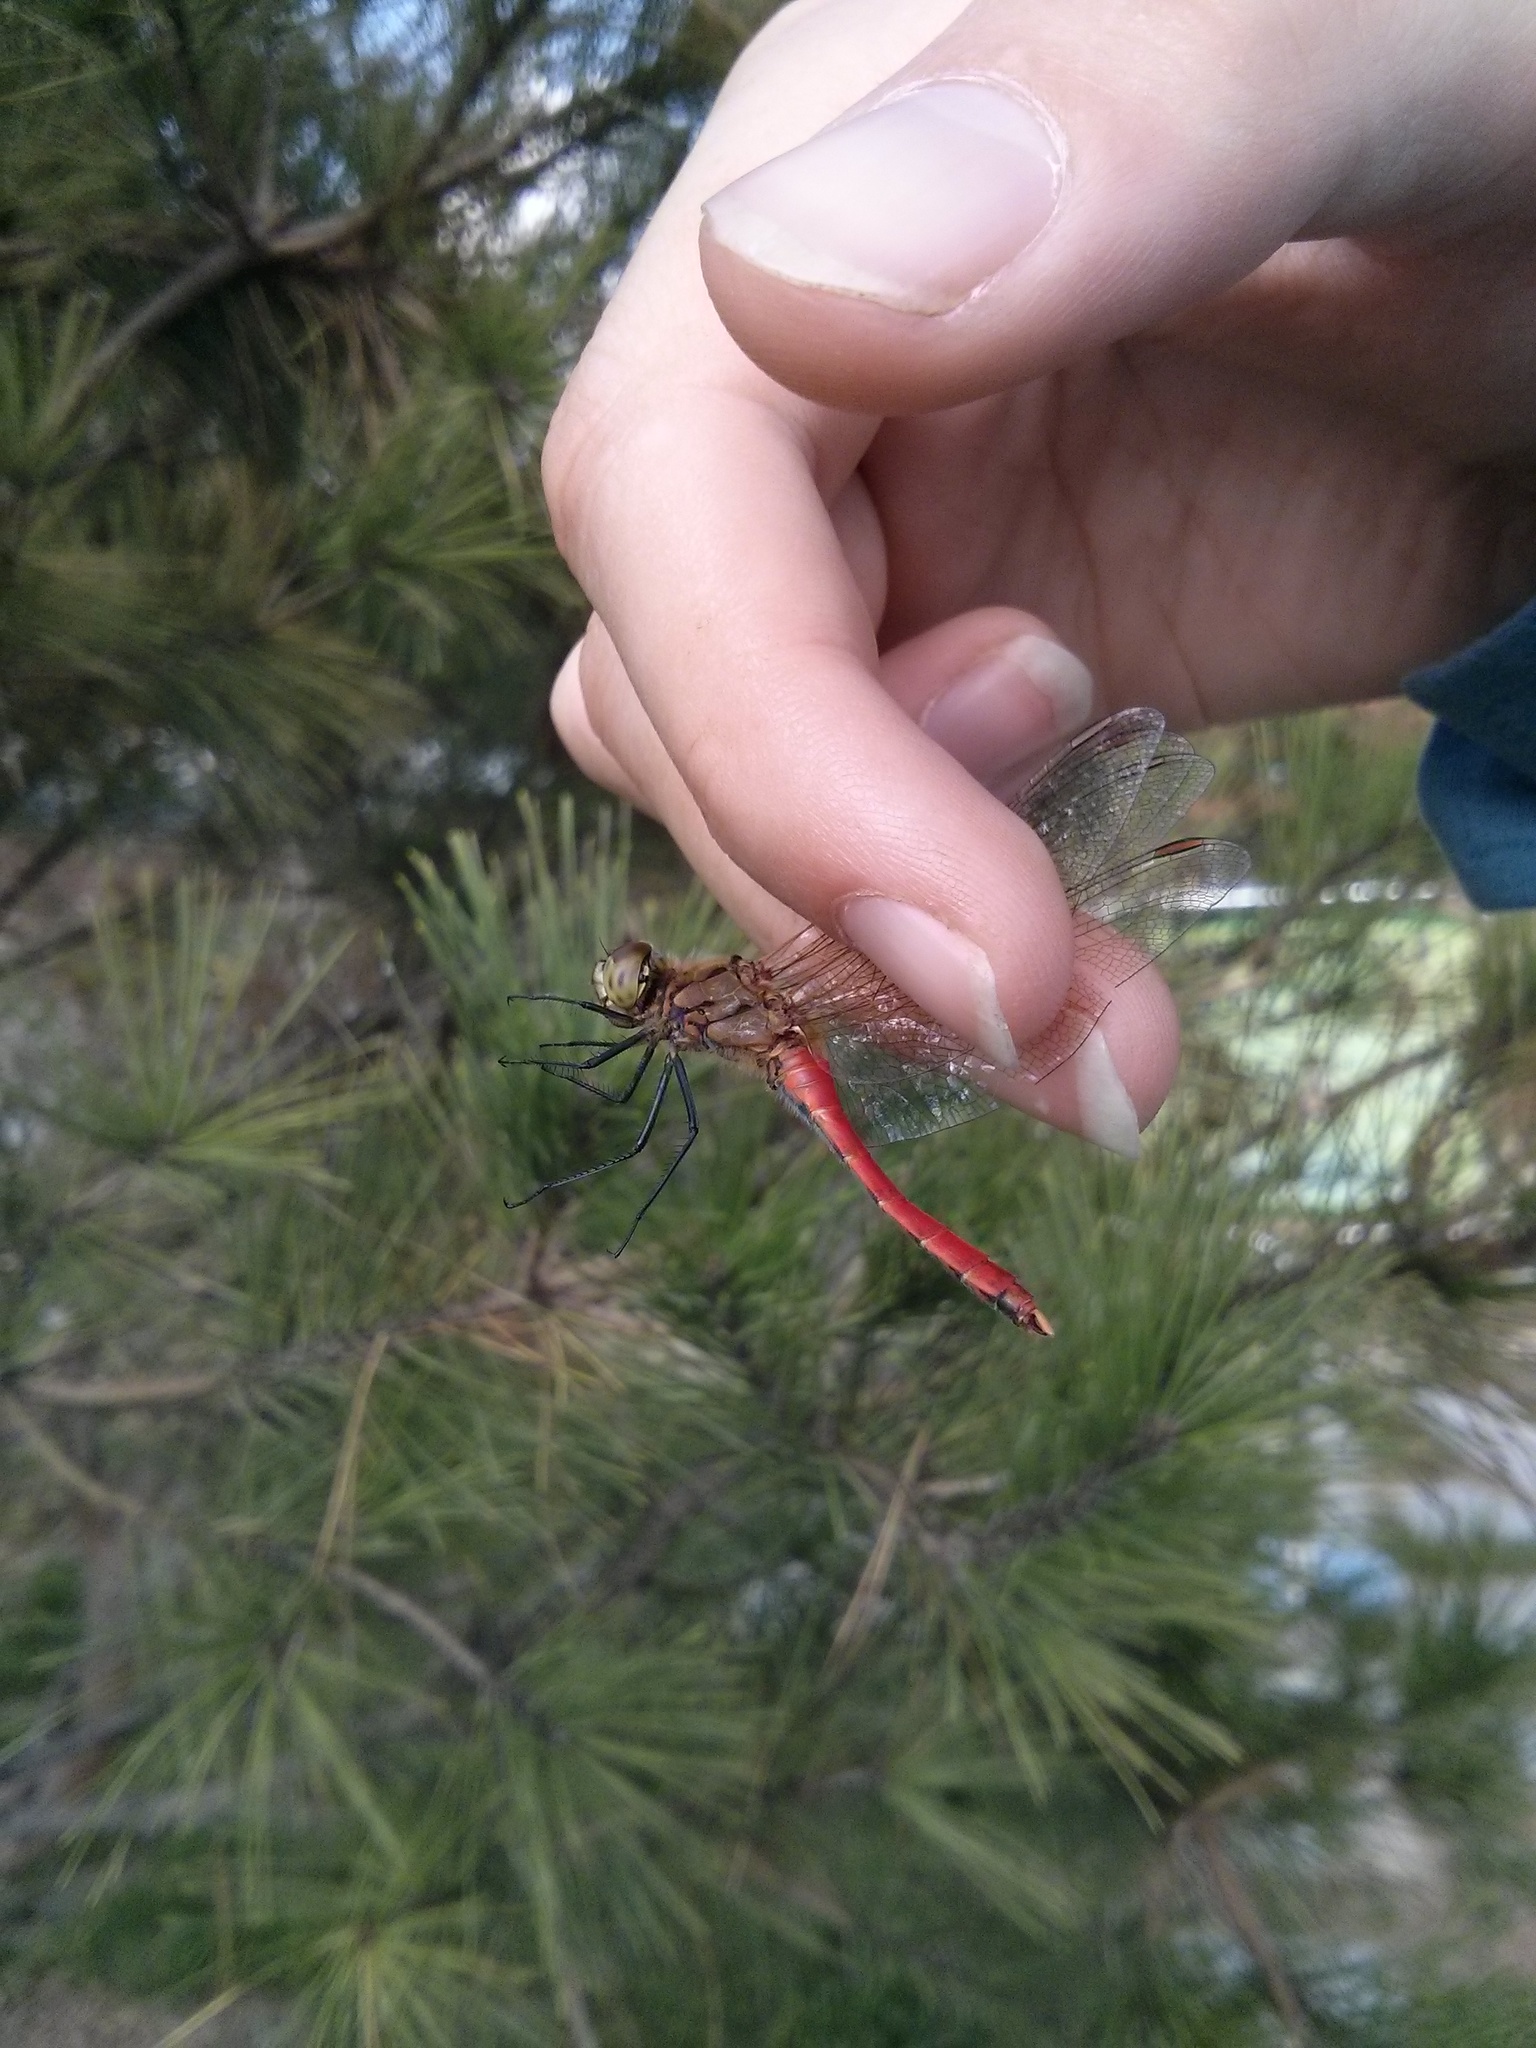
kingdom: Animalia
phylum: Arthropoda
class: Insecta
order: Odonata
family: Libellulidae
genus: Sympetrum
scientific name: Sympetrum depressiusculum
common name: Spotted darter
